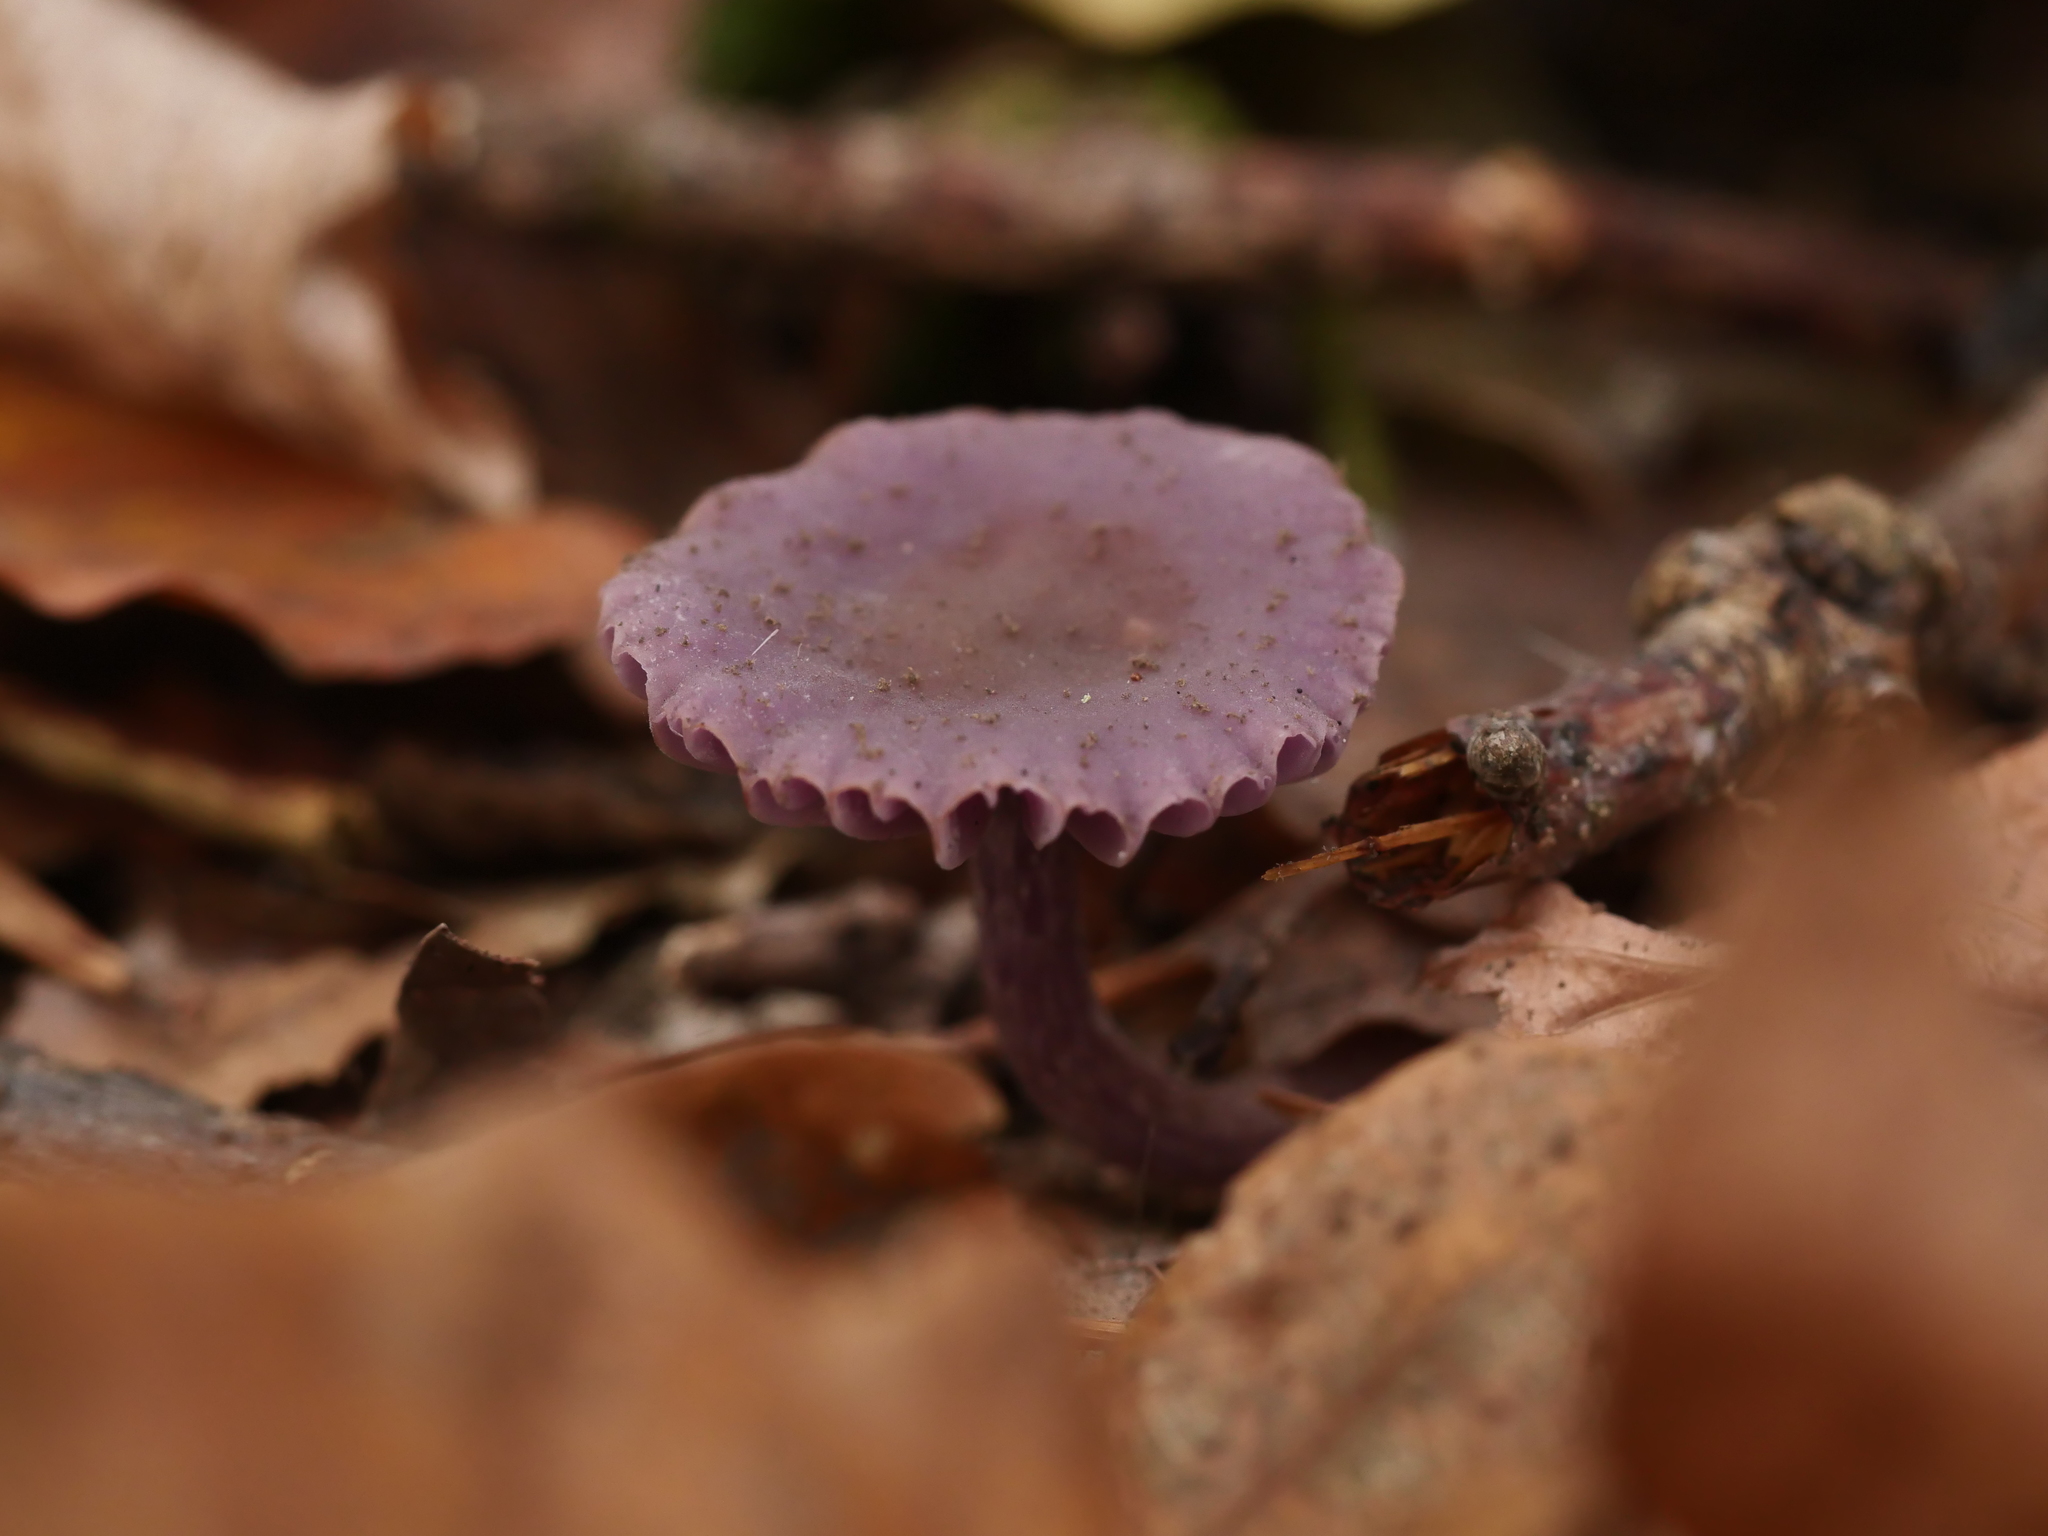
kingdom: Fungi
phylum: Basidiomycota
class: Agaricomycetes
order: Agaricales
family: Hydnangiaceae
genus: Laccaria
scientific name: Laccaria amethystina
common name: Amethyst deceiver
